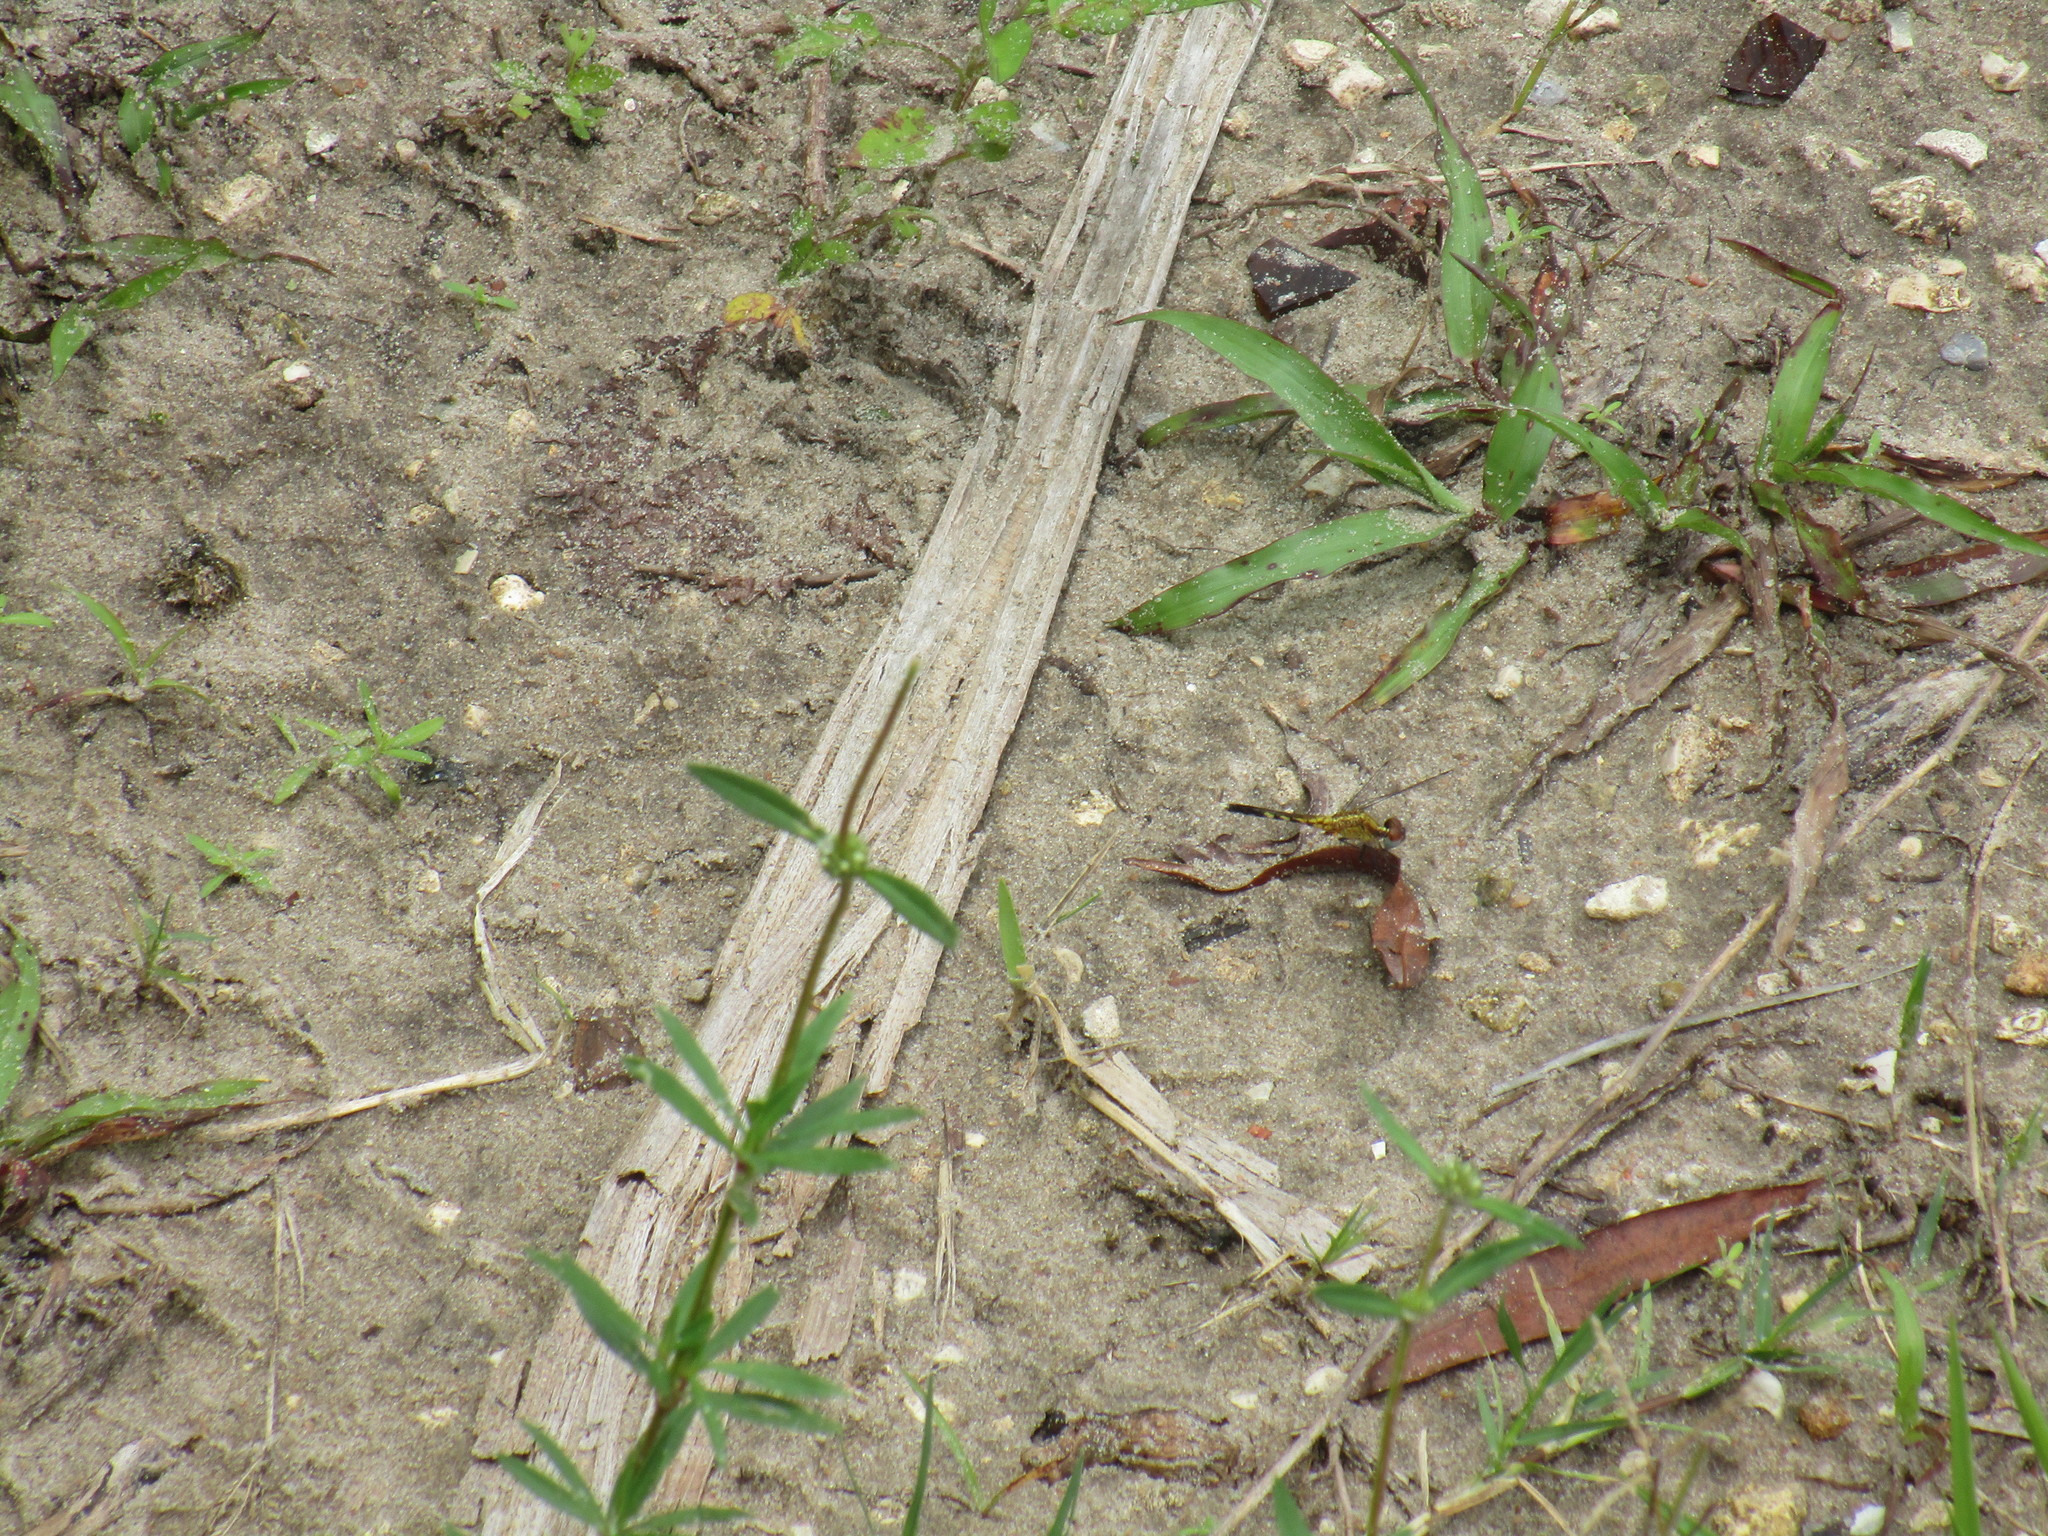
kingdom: Animalia
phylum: Arthropoda
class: Insecta
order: Odonata
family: Libellulidae
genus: Erythrodiplax
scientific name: Erythrodiplax minuscula
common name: Little blue dragonlet
